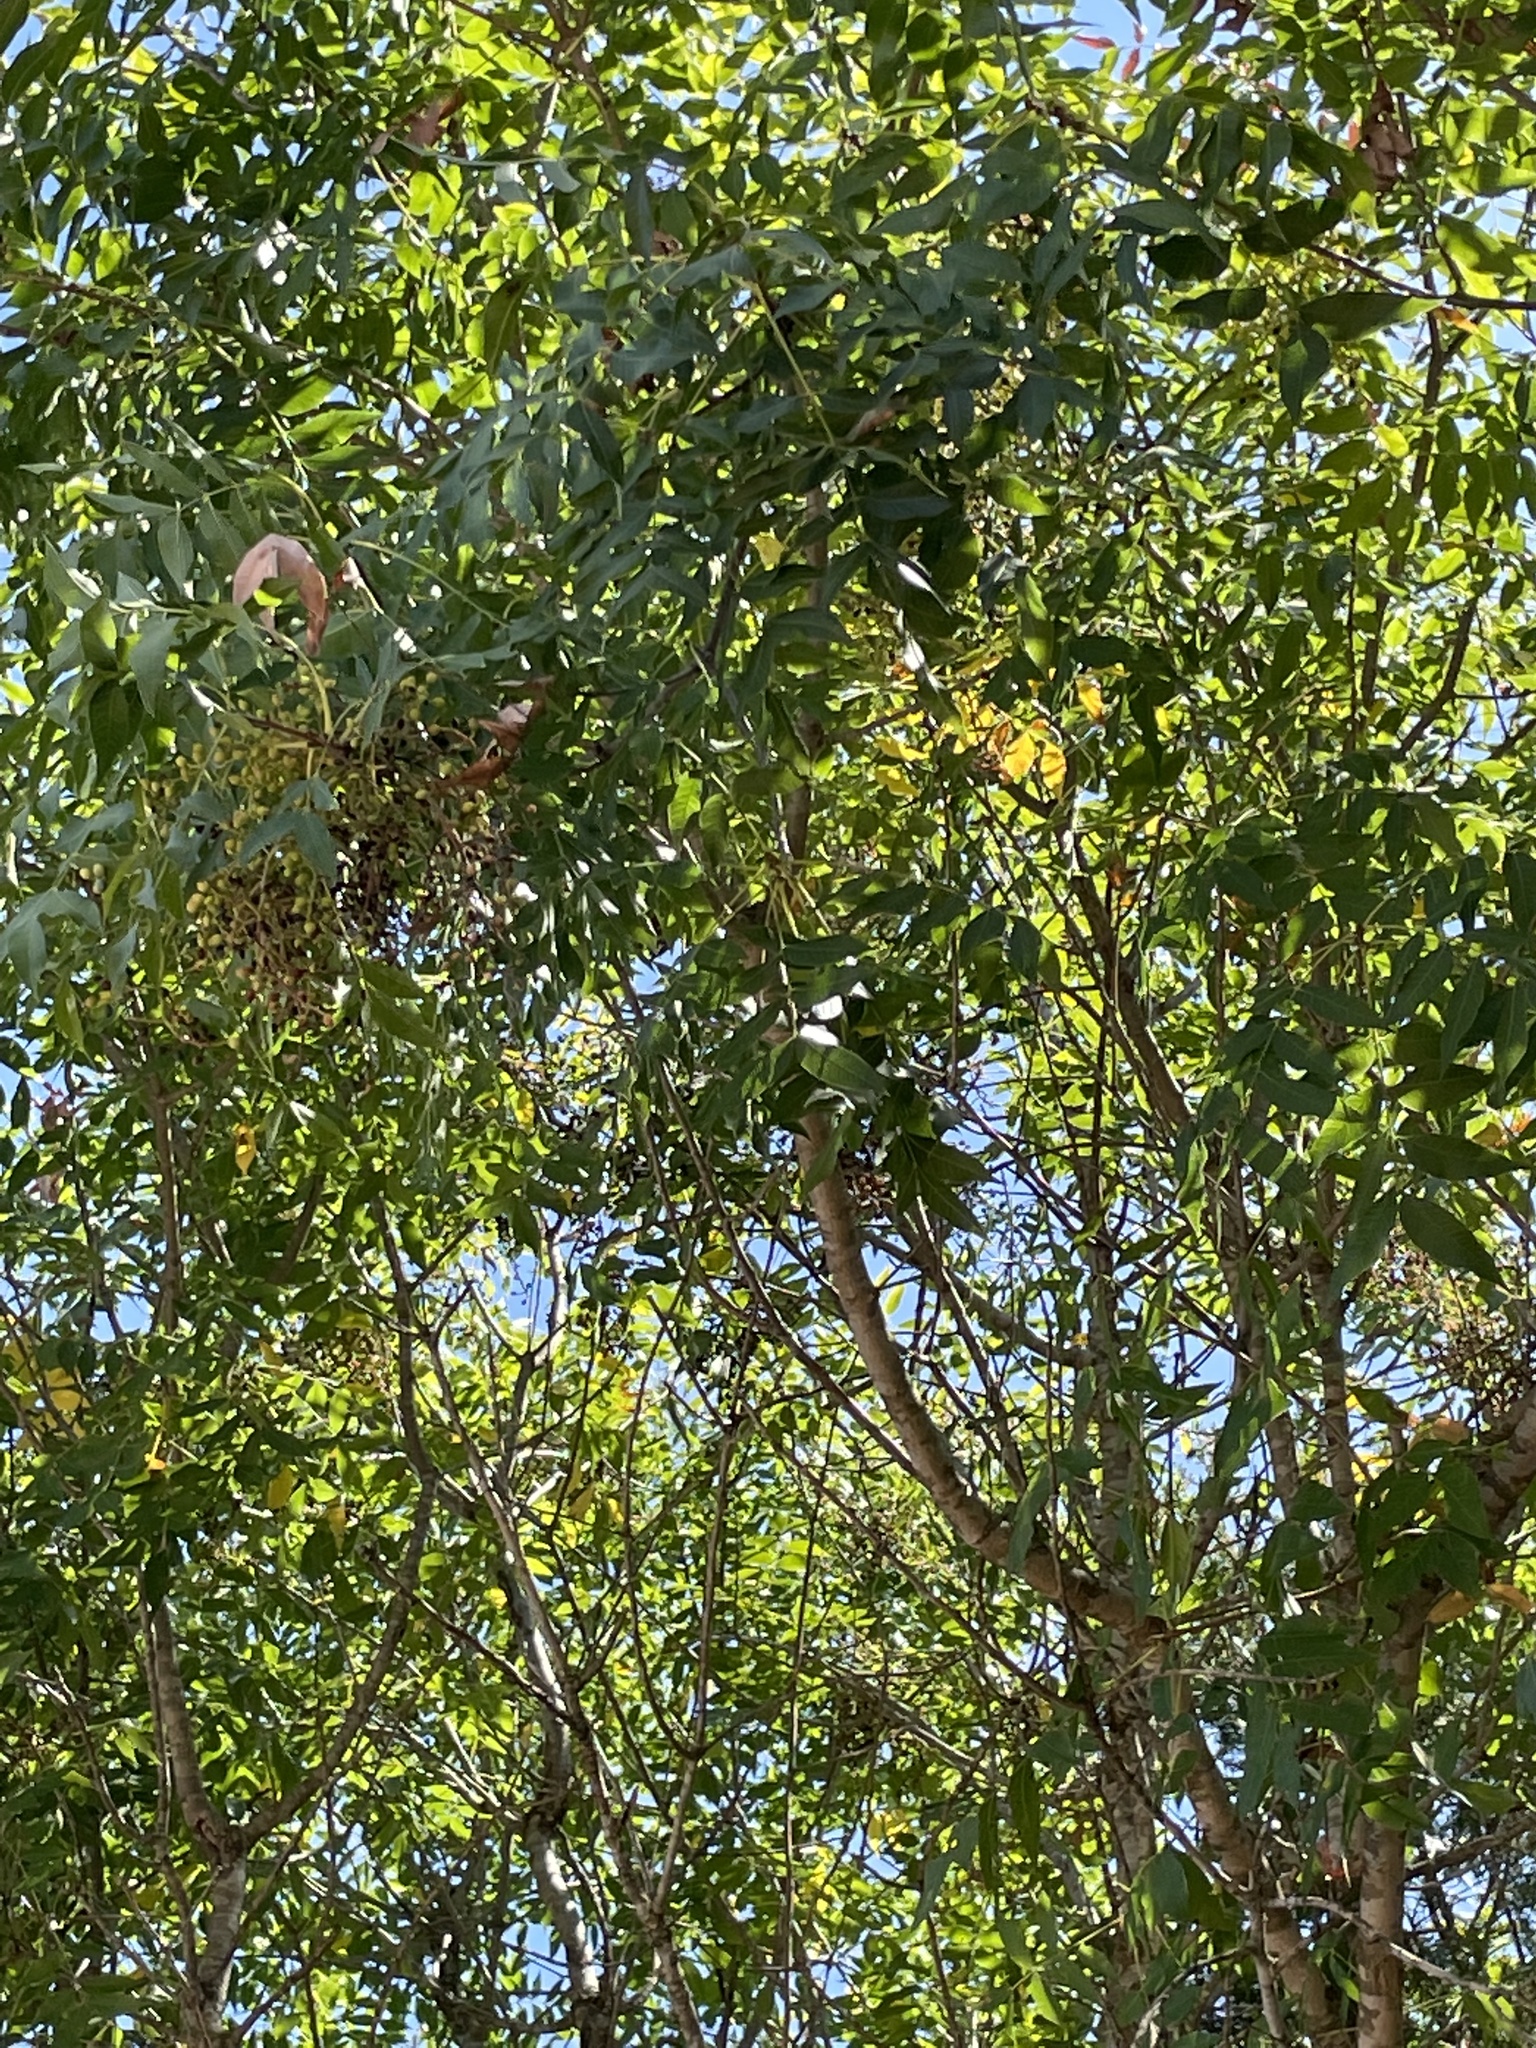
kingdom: Plantae
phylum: Tracheophyta
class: Magnoliopsida
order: Sapindales
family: Anacardiaceae
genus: Pistacia
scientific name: Pistacia chinensis
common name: Chinese pistache
